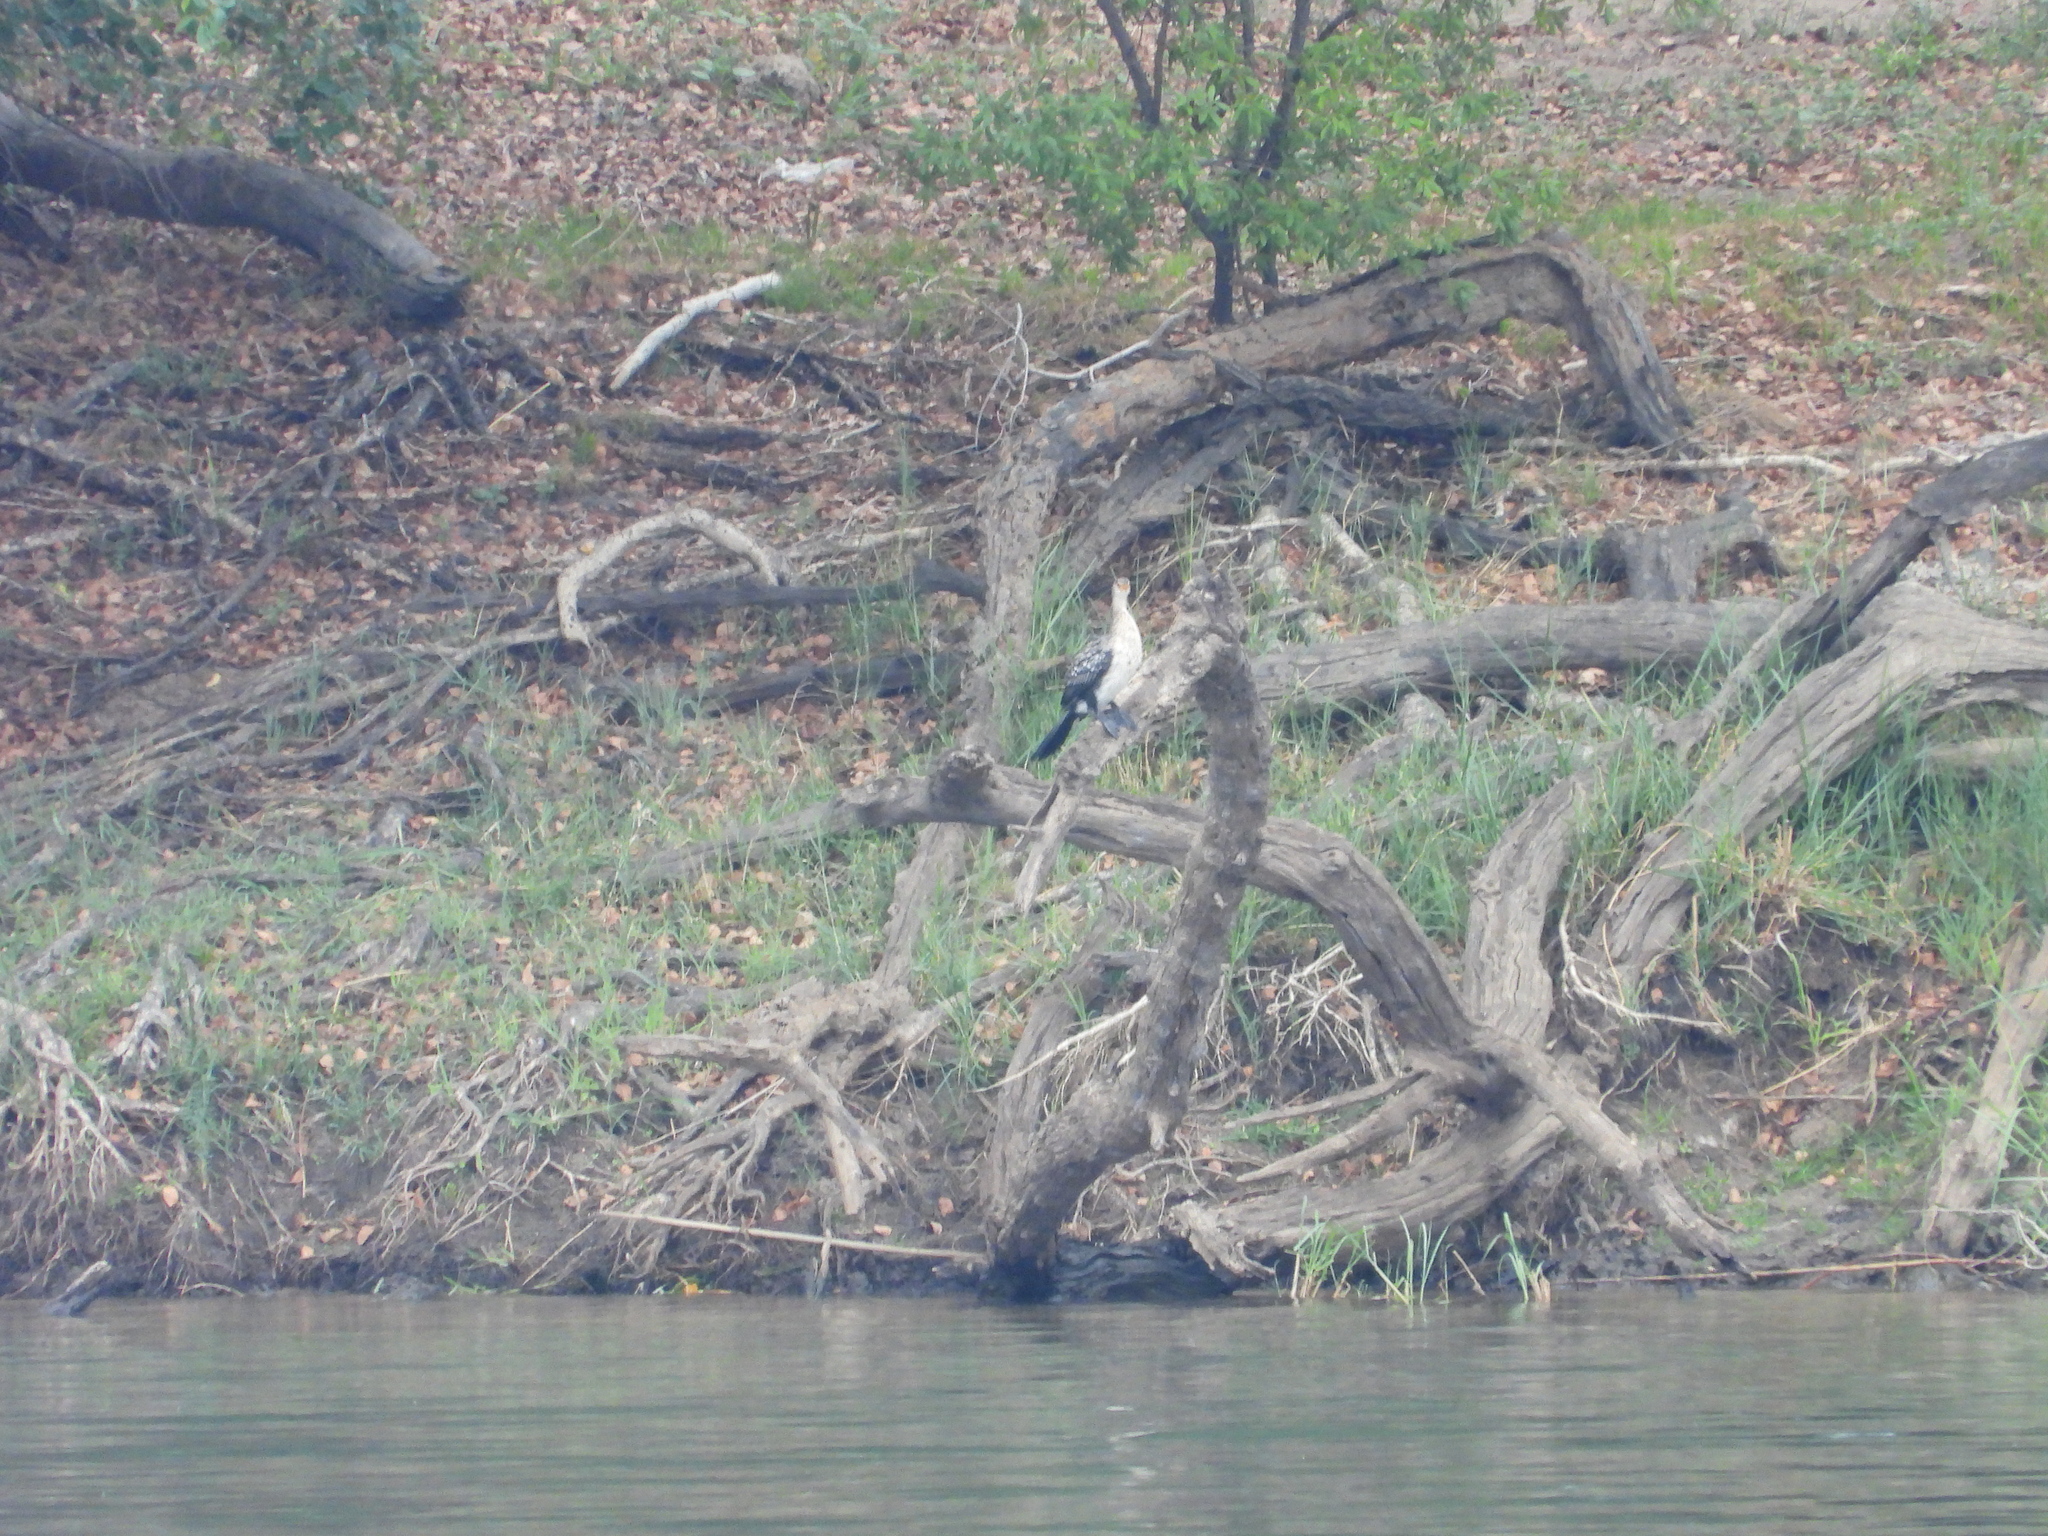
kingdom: Animalia
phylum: Chordata
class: Aves
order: Suliformes
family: Phalacrocoracidae
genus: Microcarbo
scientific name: Microcarbo africanus
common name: Long-tailed cormorant
